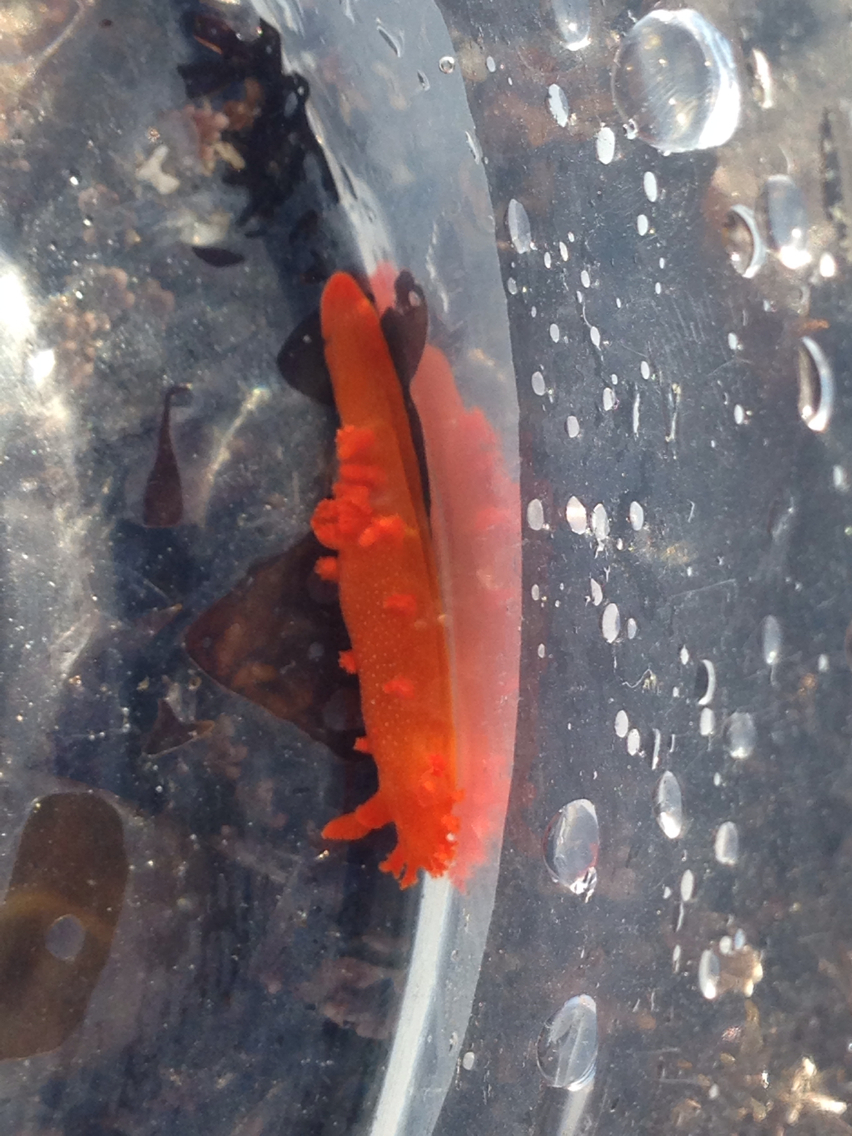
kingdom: Animalia
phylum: Mollusca
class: Gastropoda
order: Nudibranchia
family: Polyceridae
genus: Triopha
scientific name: Triopha maculata
